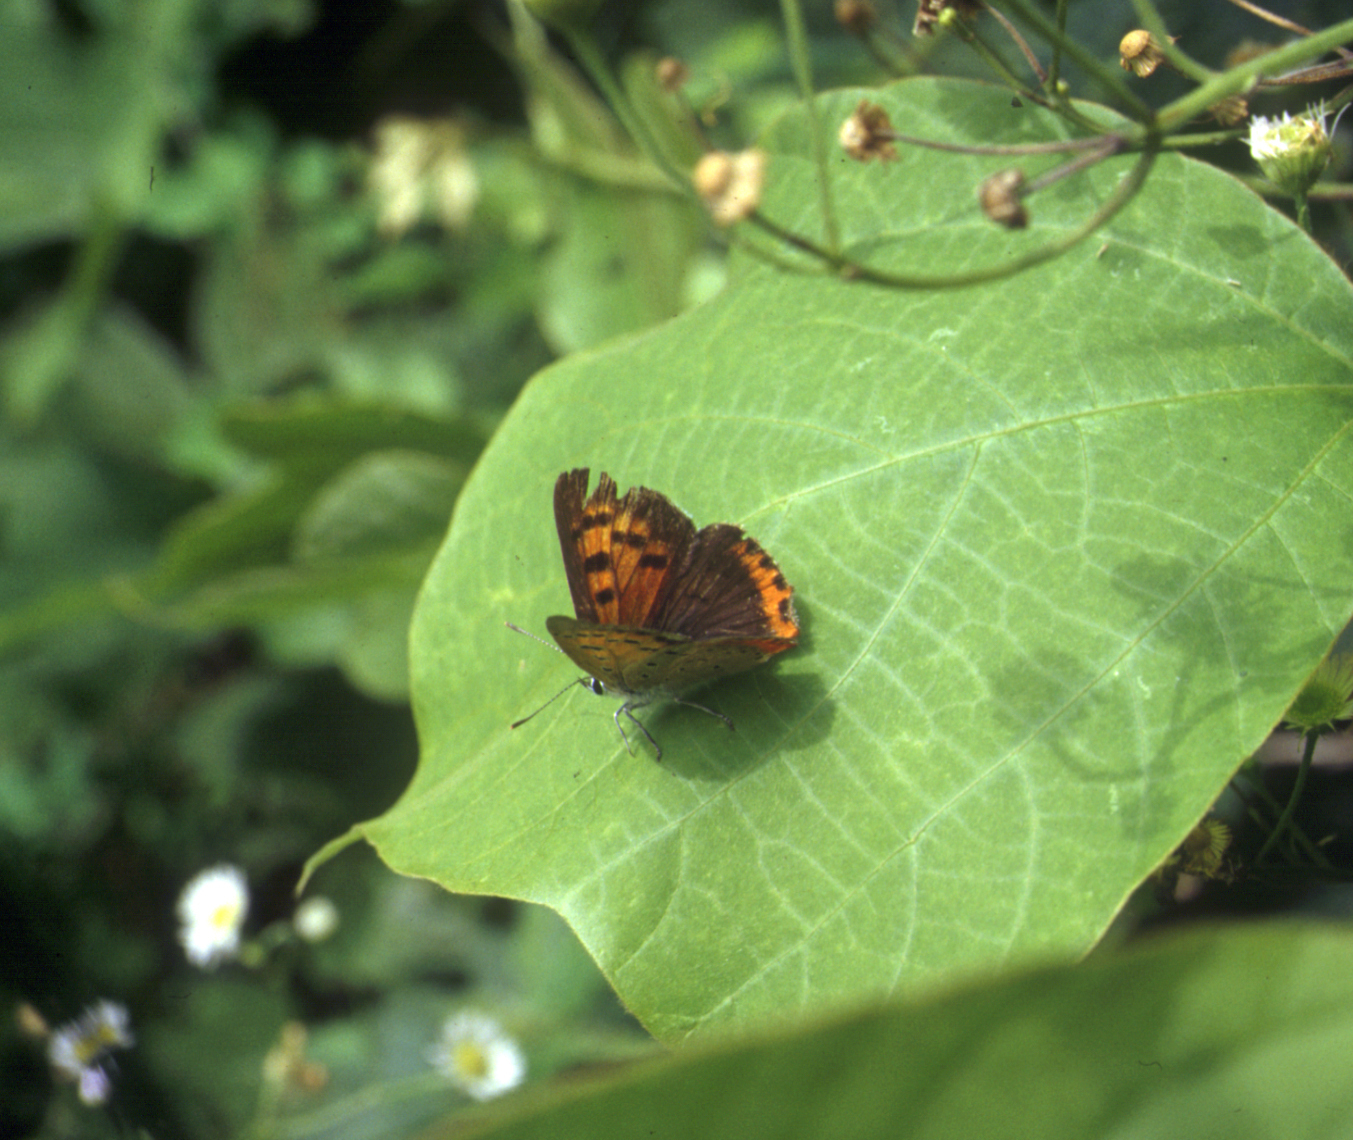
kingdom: Animalia
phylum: Arthropoda
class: Insecta
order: Lepidoptera
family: Lycaenidae
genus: Lycaena
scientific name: Lycaena phlaeas
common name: Small copper
